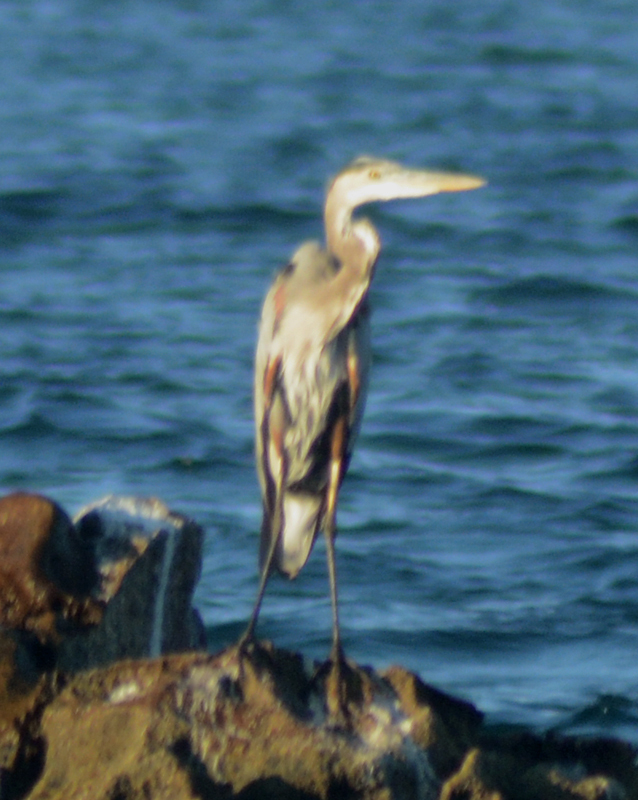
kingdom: Animalia
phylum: Chordata
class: Aves
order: Pelecaniformes
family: Ardeidae
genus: Ardea
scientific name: Ardea herodias
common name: Great blue heron
